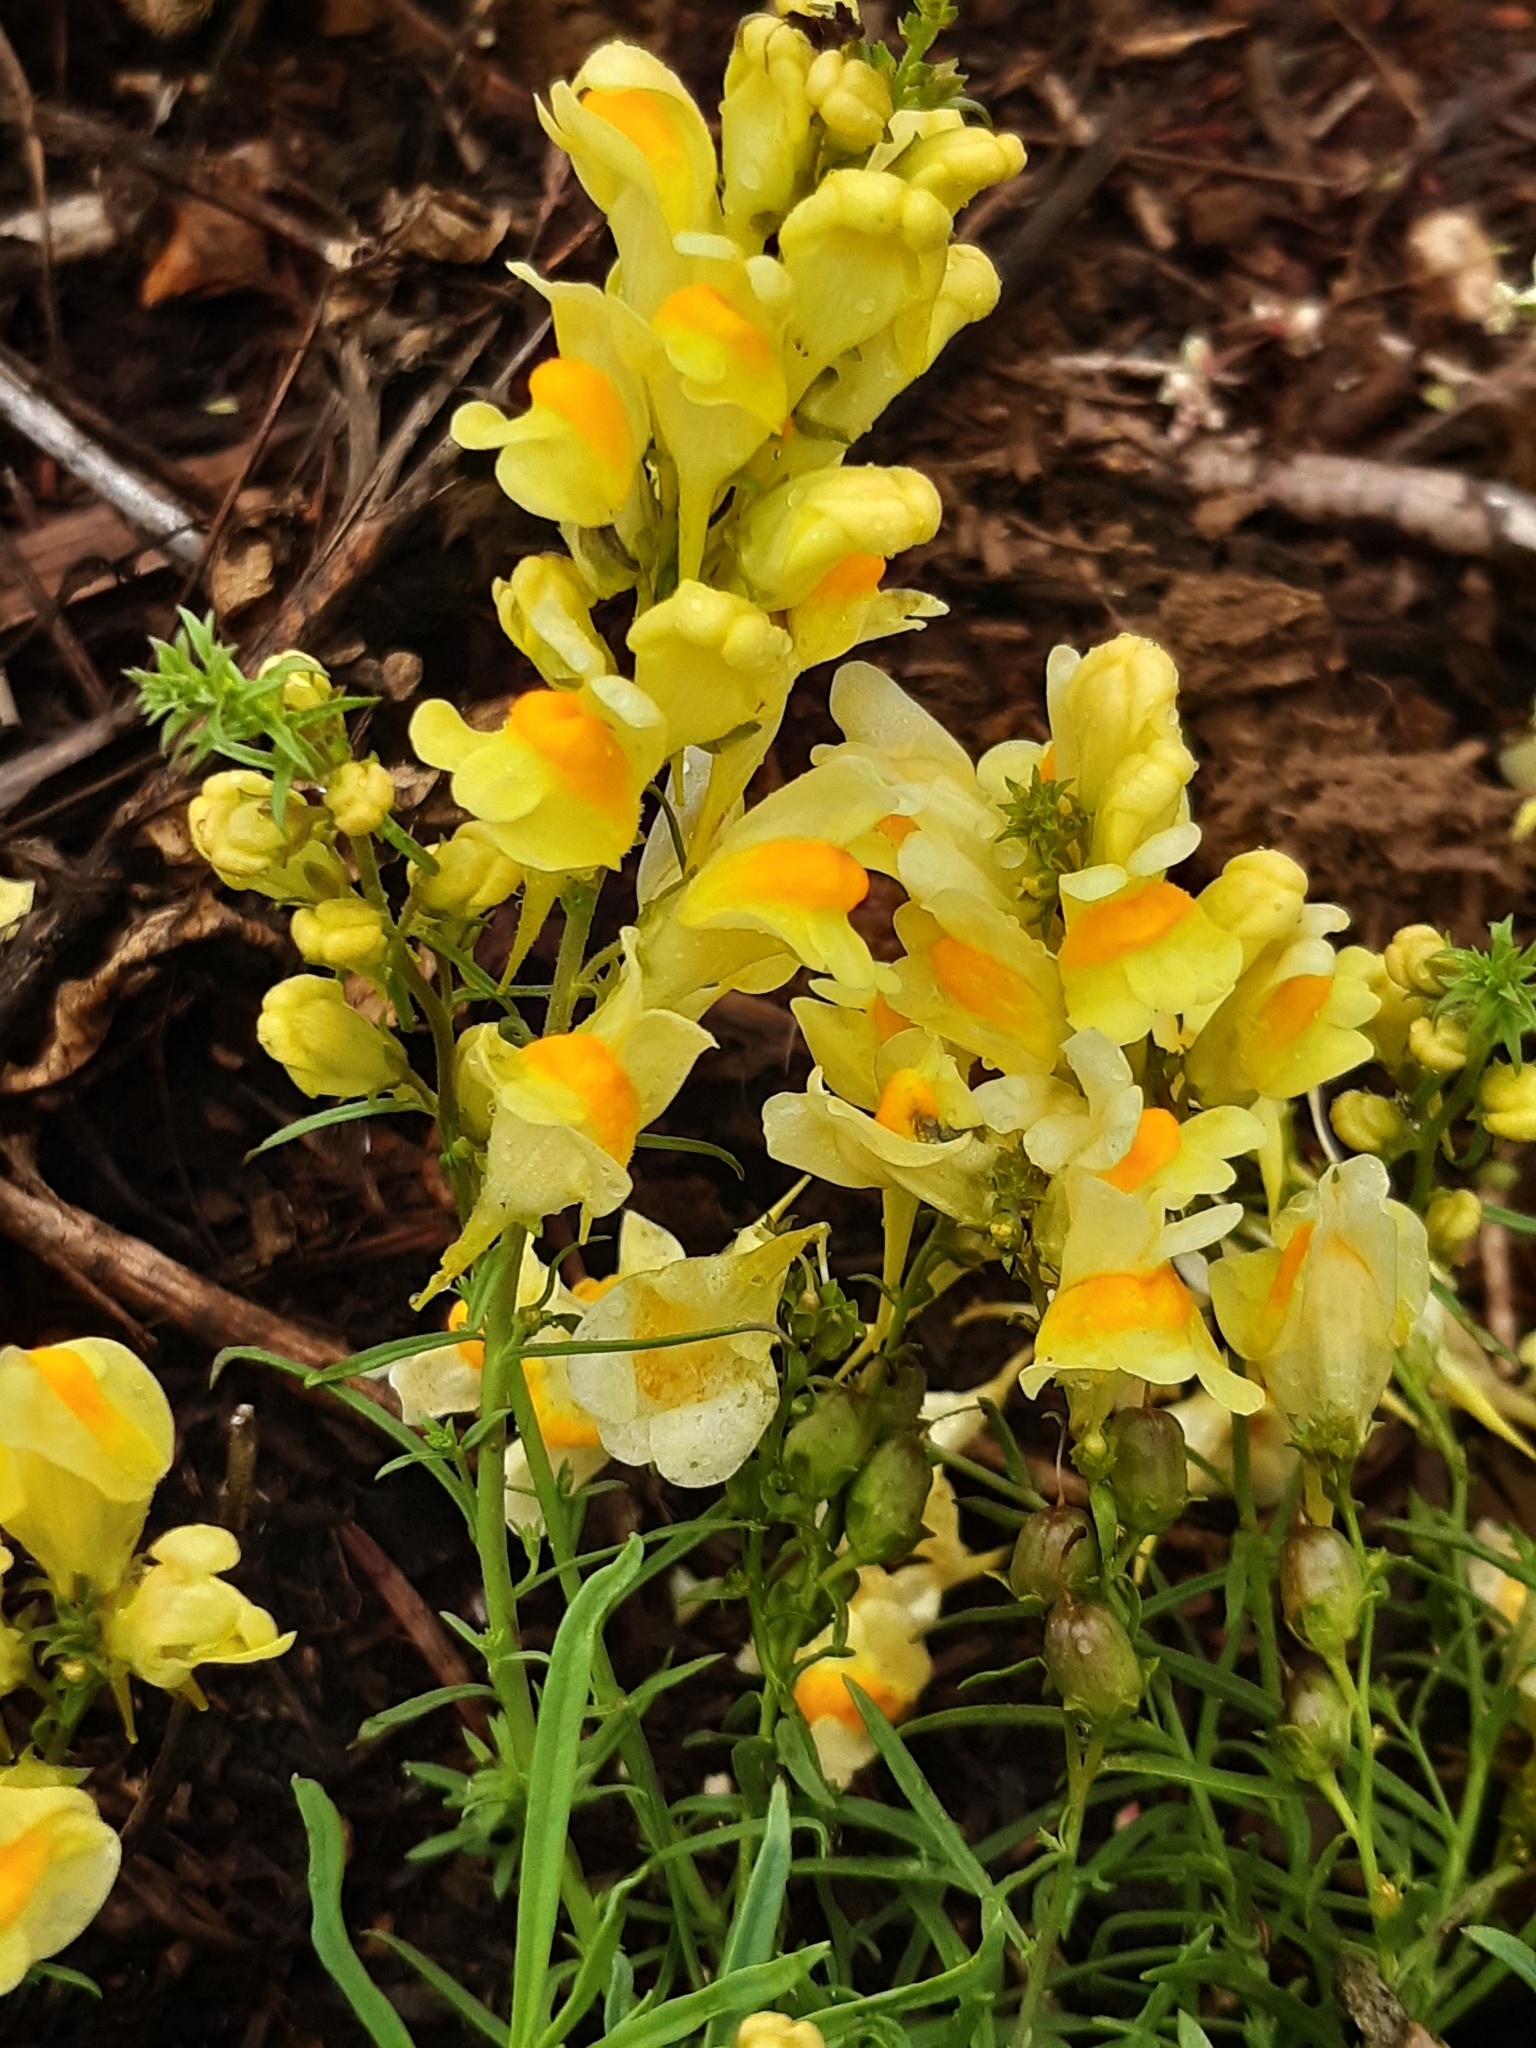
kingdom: Plantae
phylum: Tracheophyta
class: Magnoliopsida
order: Lamiales
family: Plantaginaceae
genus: Linaria
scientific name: Linaria vulgaris
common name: Butter and eggs
